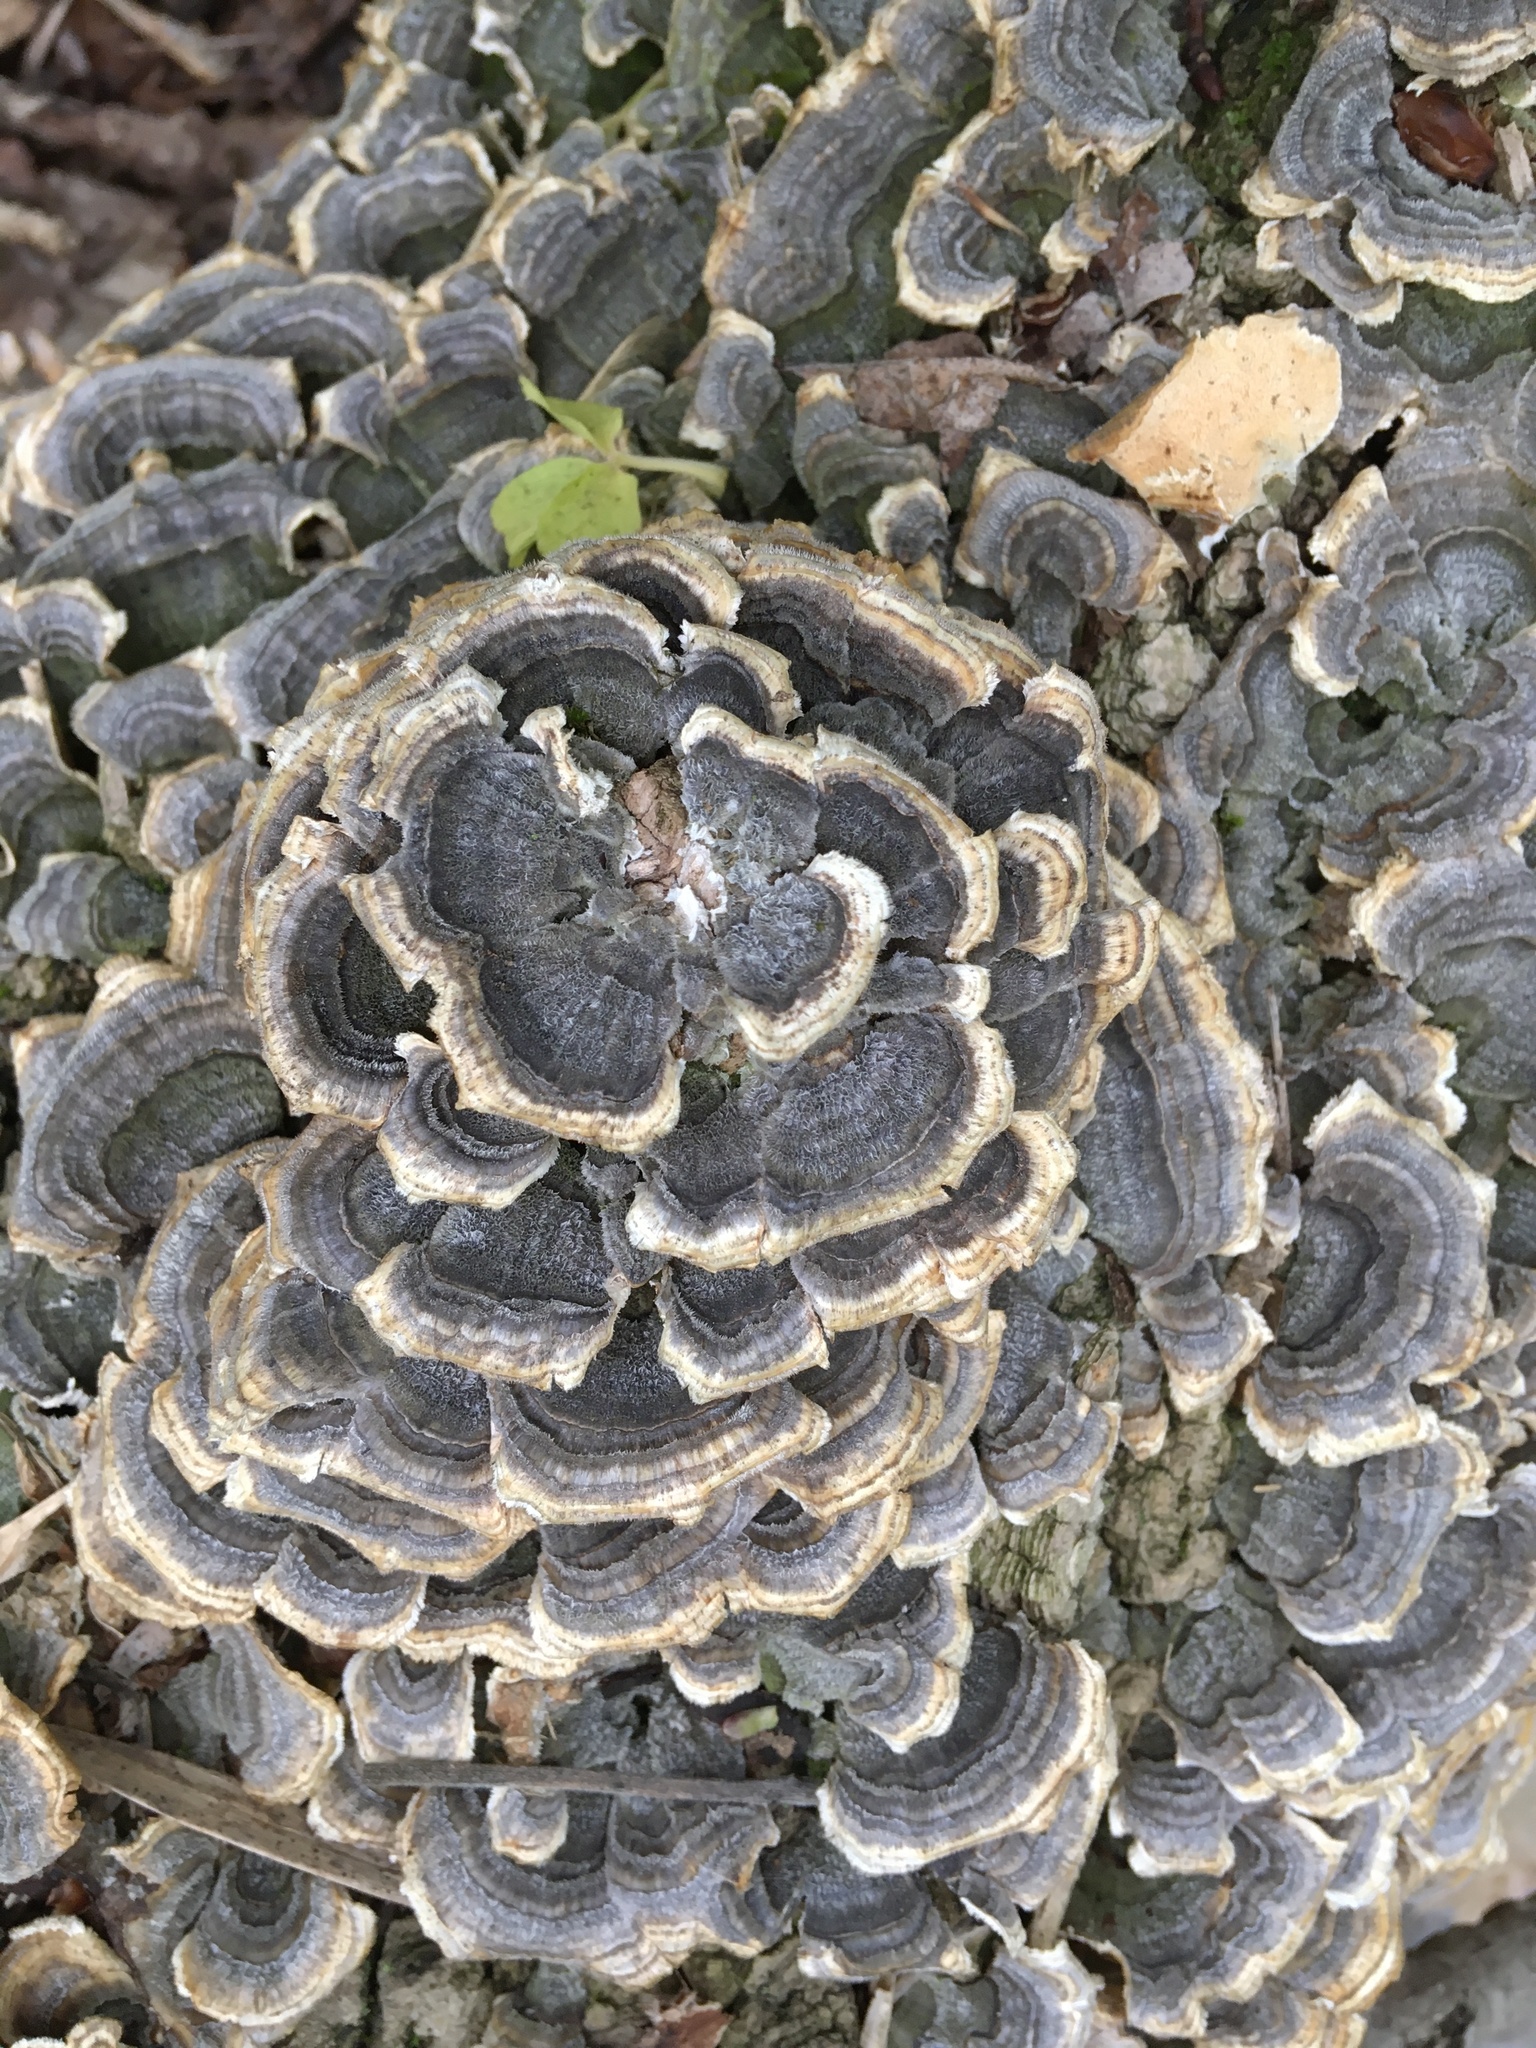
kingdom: Fungi
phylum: Basidiomycota
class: Agaricomycetes
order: Polyporales
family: Polyporaceae
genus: Trametes
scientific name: Trametes versicolor
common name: Turkeytail
